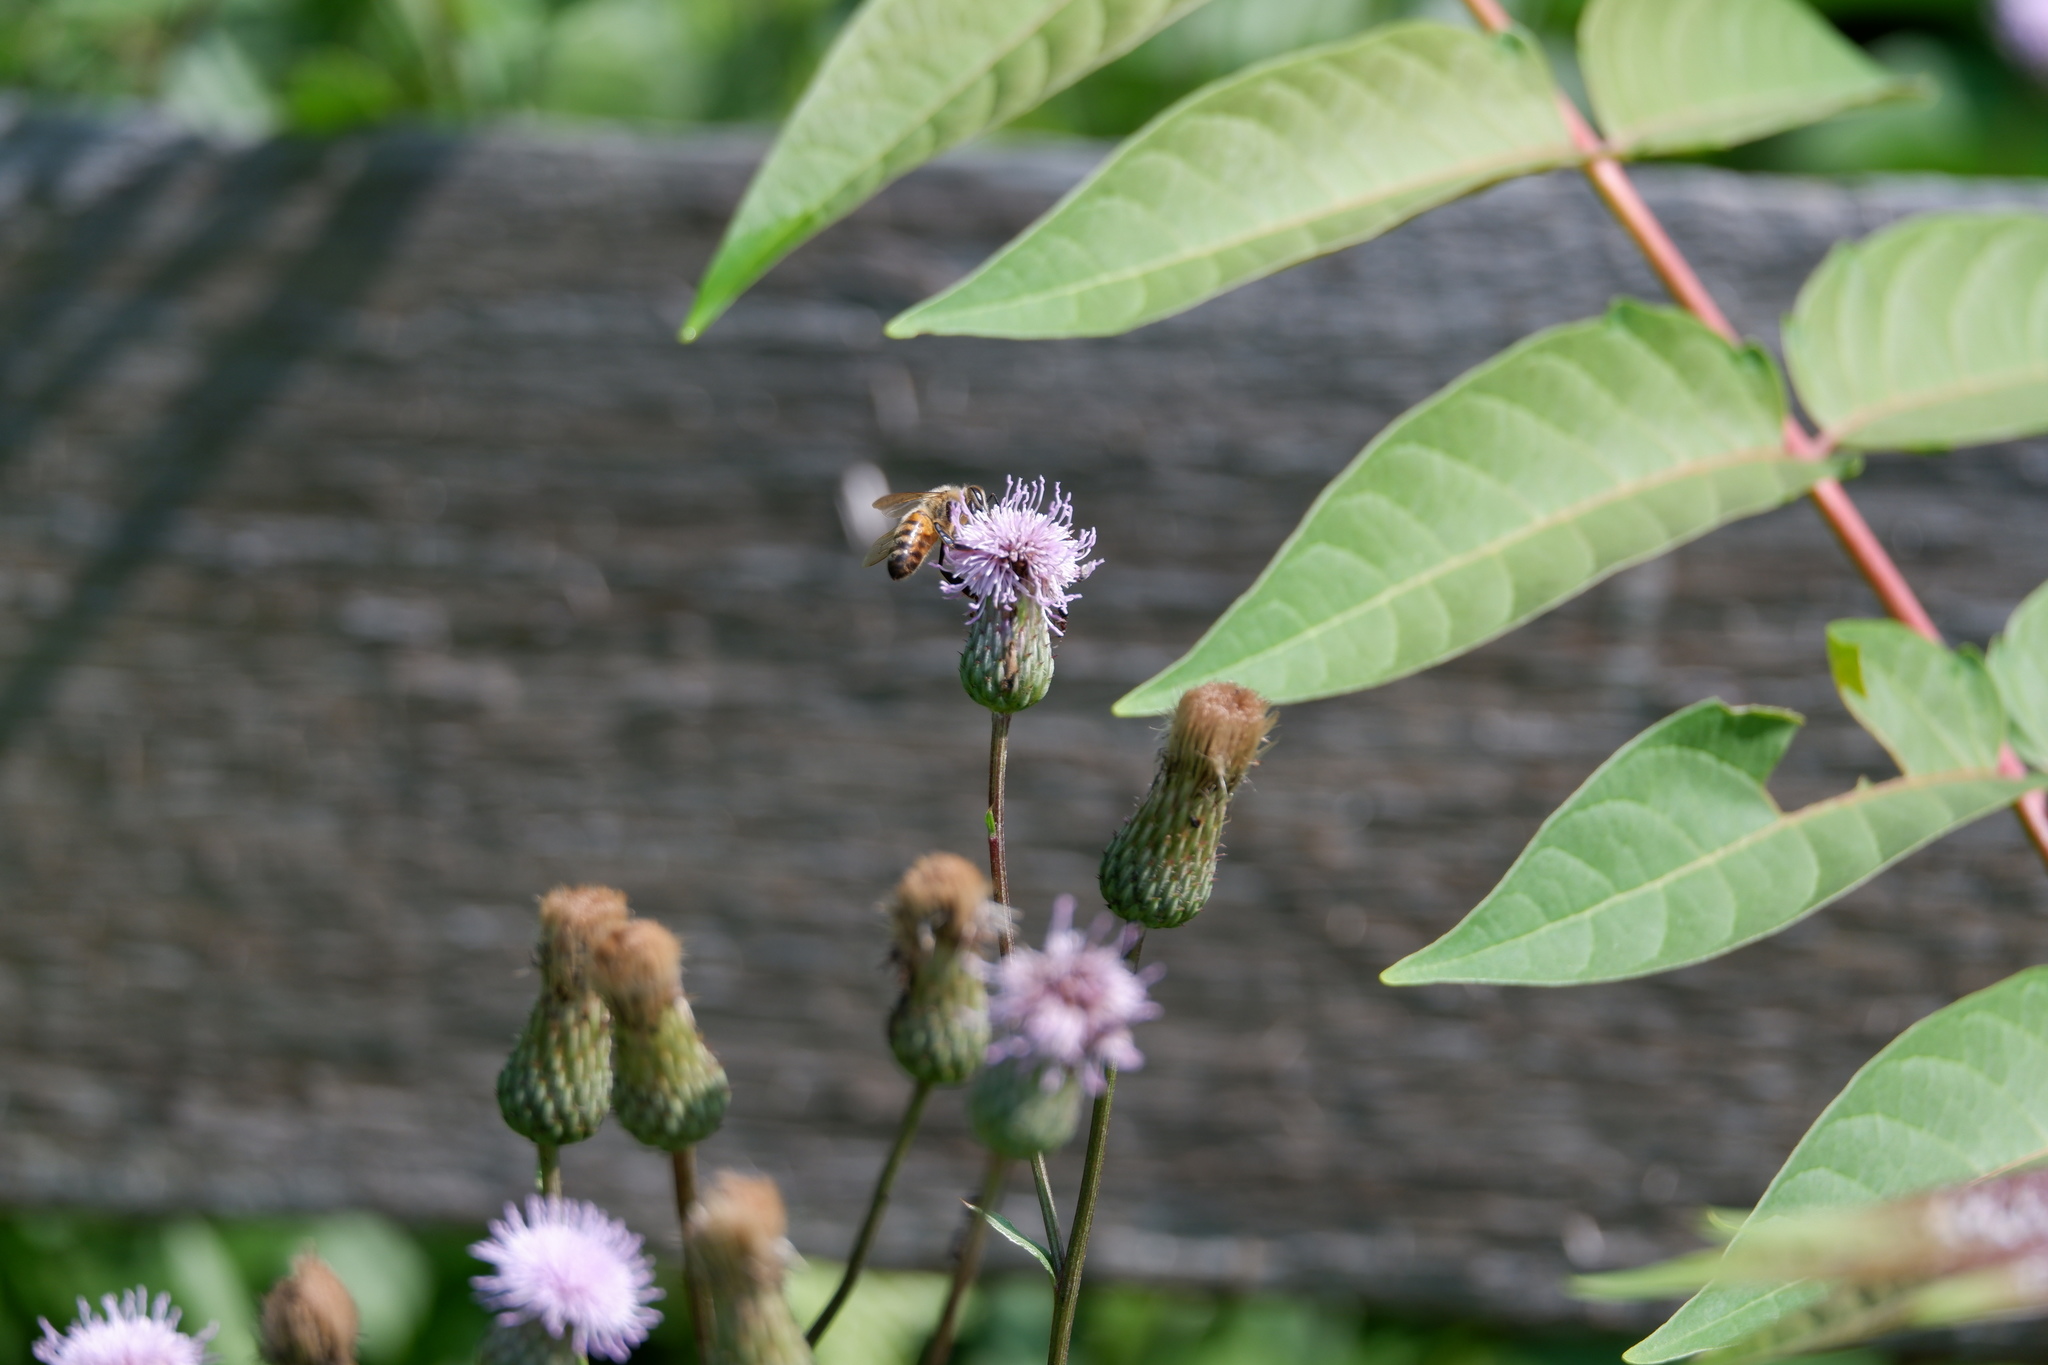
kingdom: Animalia
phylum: Arthropoda
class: Insecta
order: Hymenoptera
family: Apidae
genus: Apis
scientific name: Apis mellifera
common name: Honey bee
